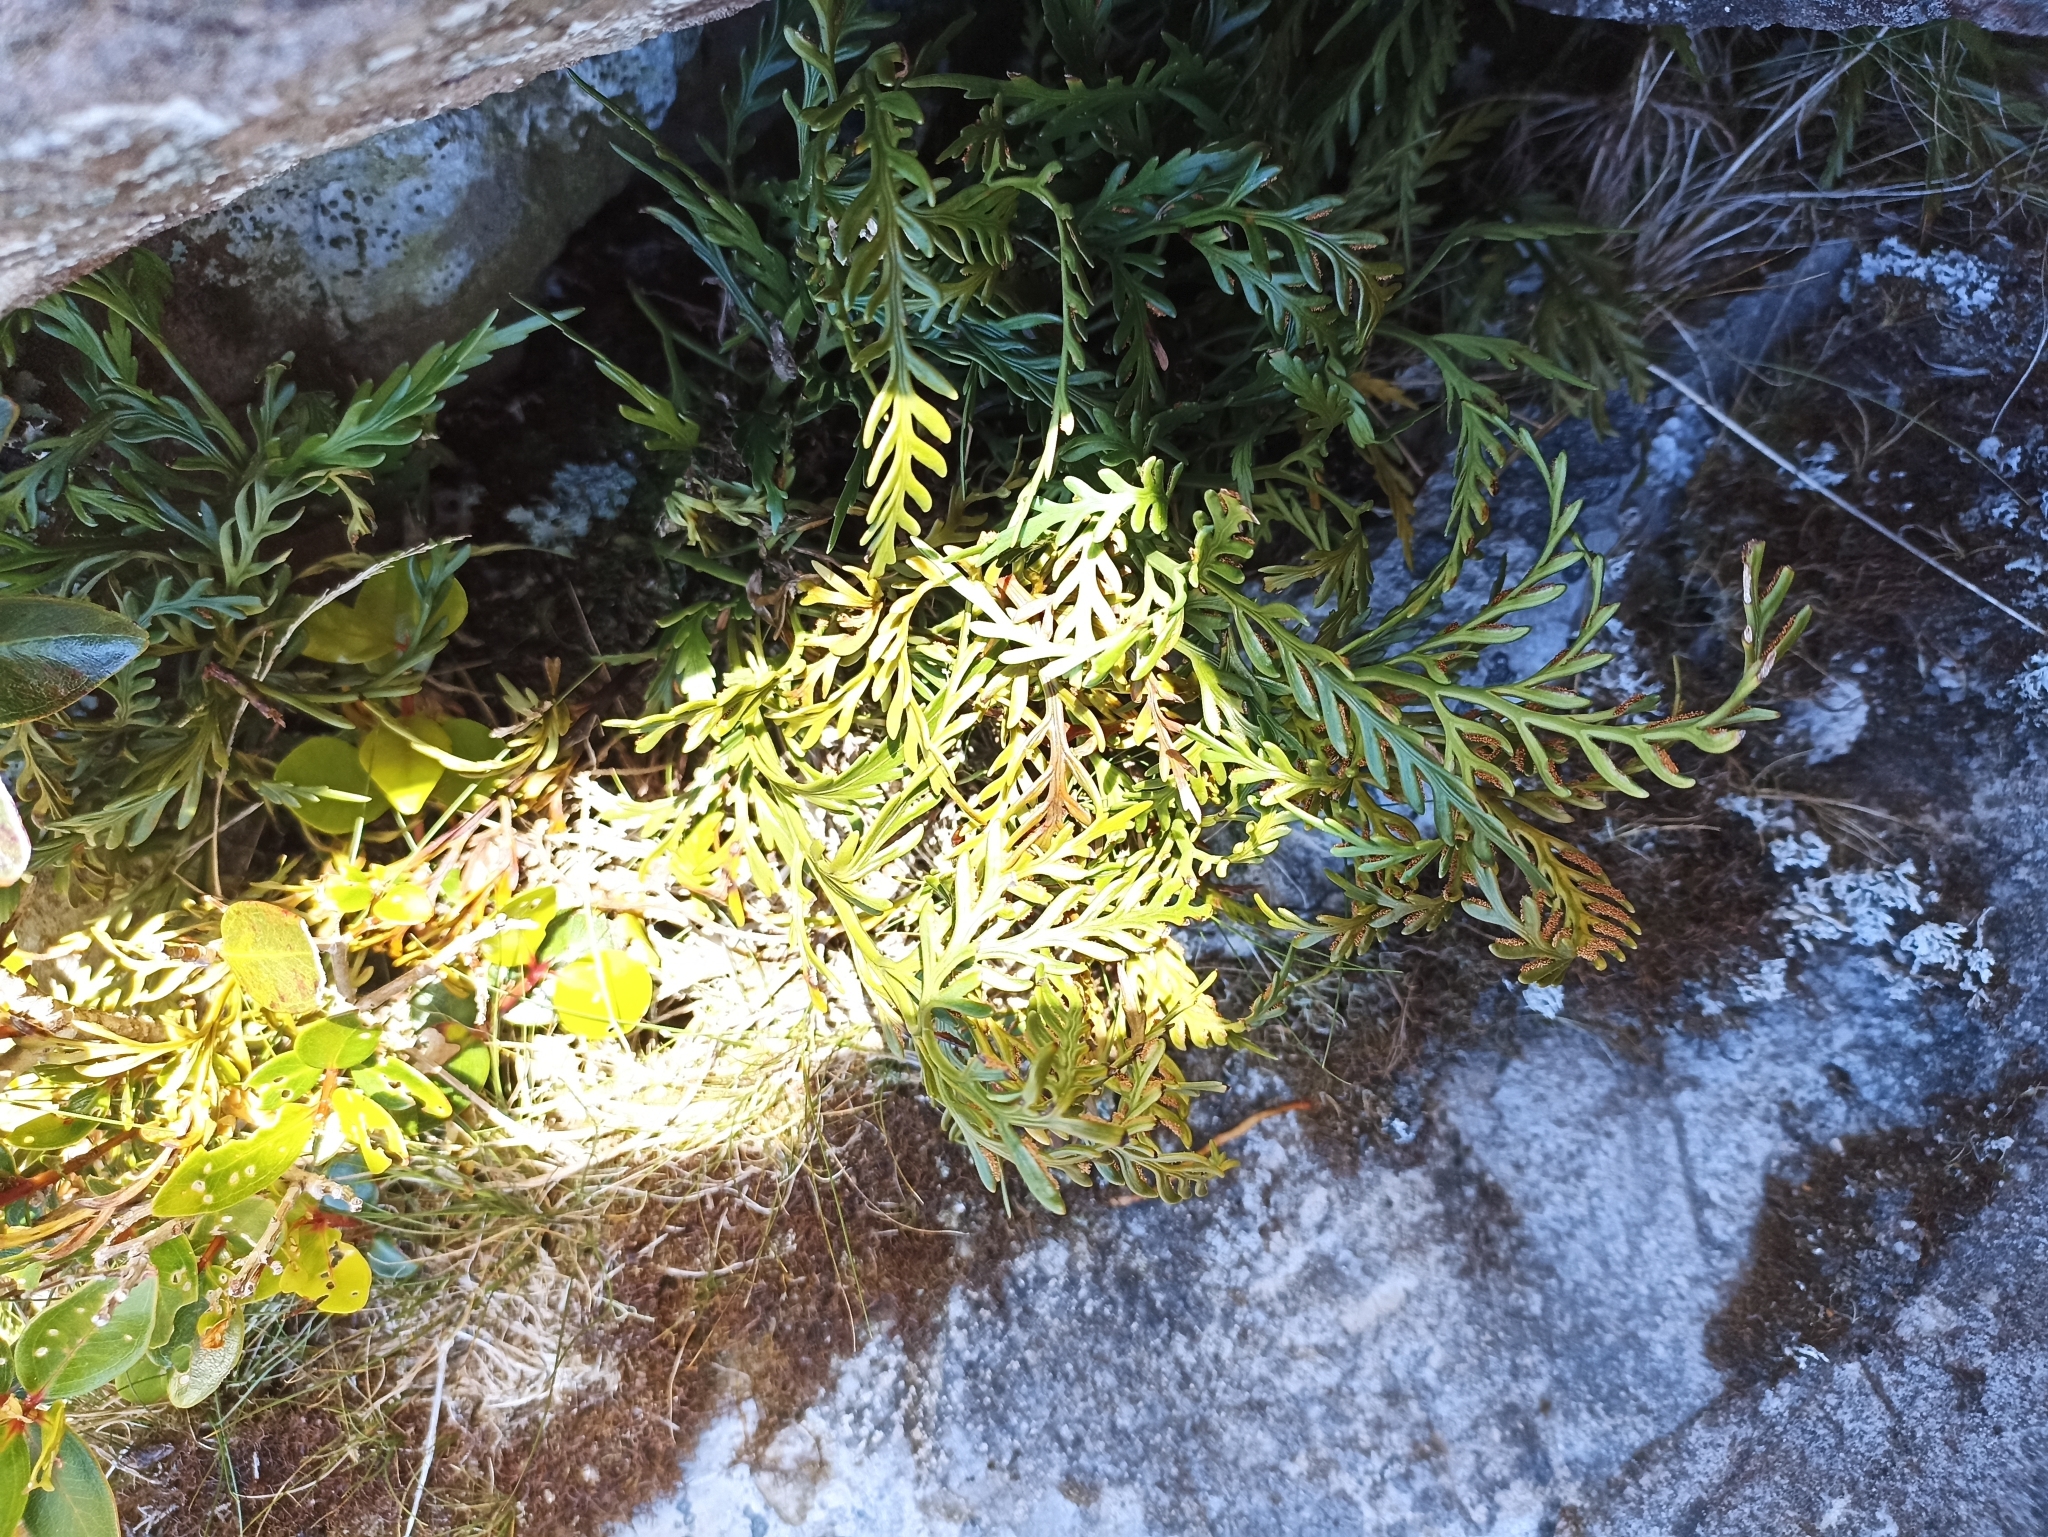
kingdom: Plantae
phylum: Tracheophyta
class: Polypodiopsida
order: Polypodiales
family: Aspleniaceae
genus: Asplenium
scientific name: Asplenium flaccidum
